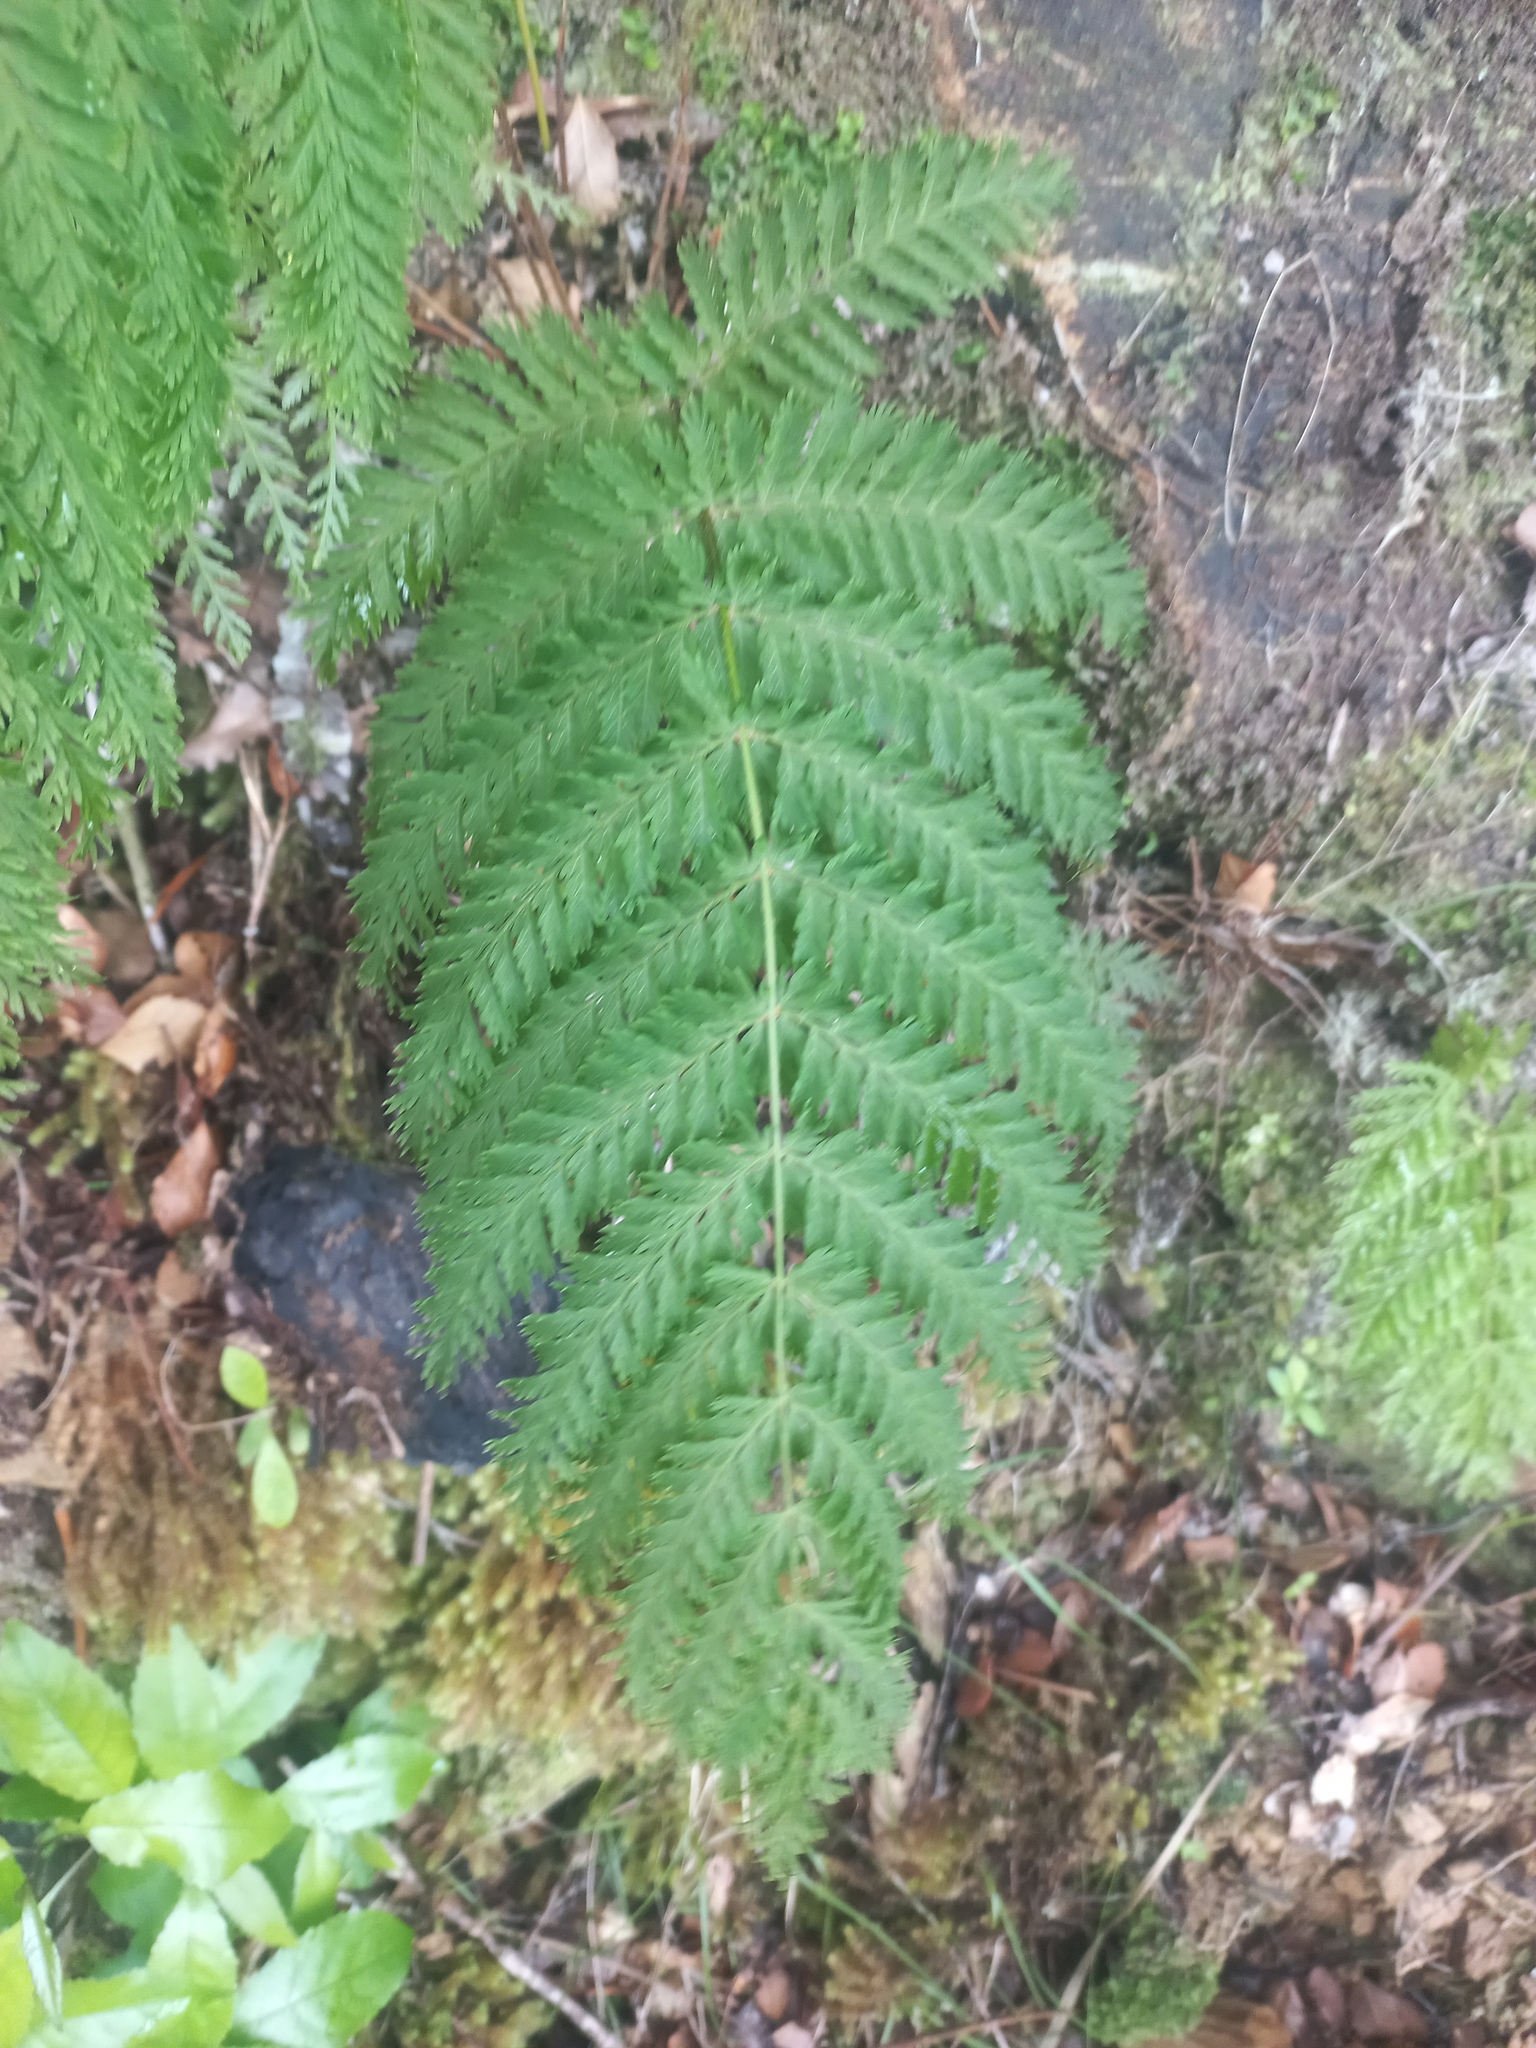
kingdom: Plantae
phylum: Tracheophyta
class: Polypodiopsida
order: Osmundales
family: Osmundaceae
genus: Leptopteris
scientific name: Leptopteris hymenophylloides
